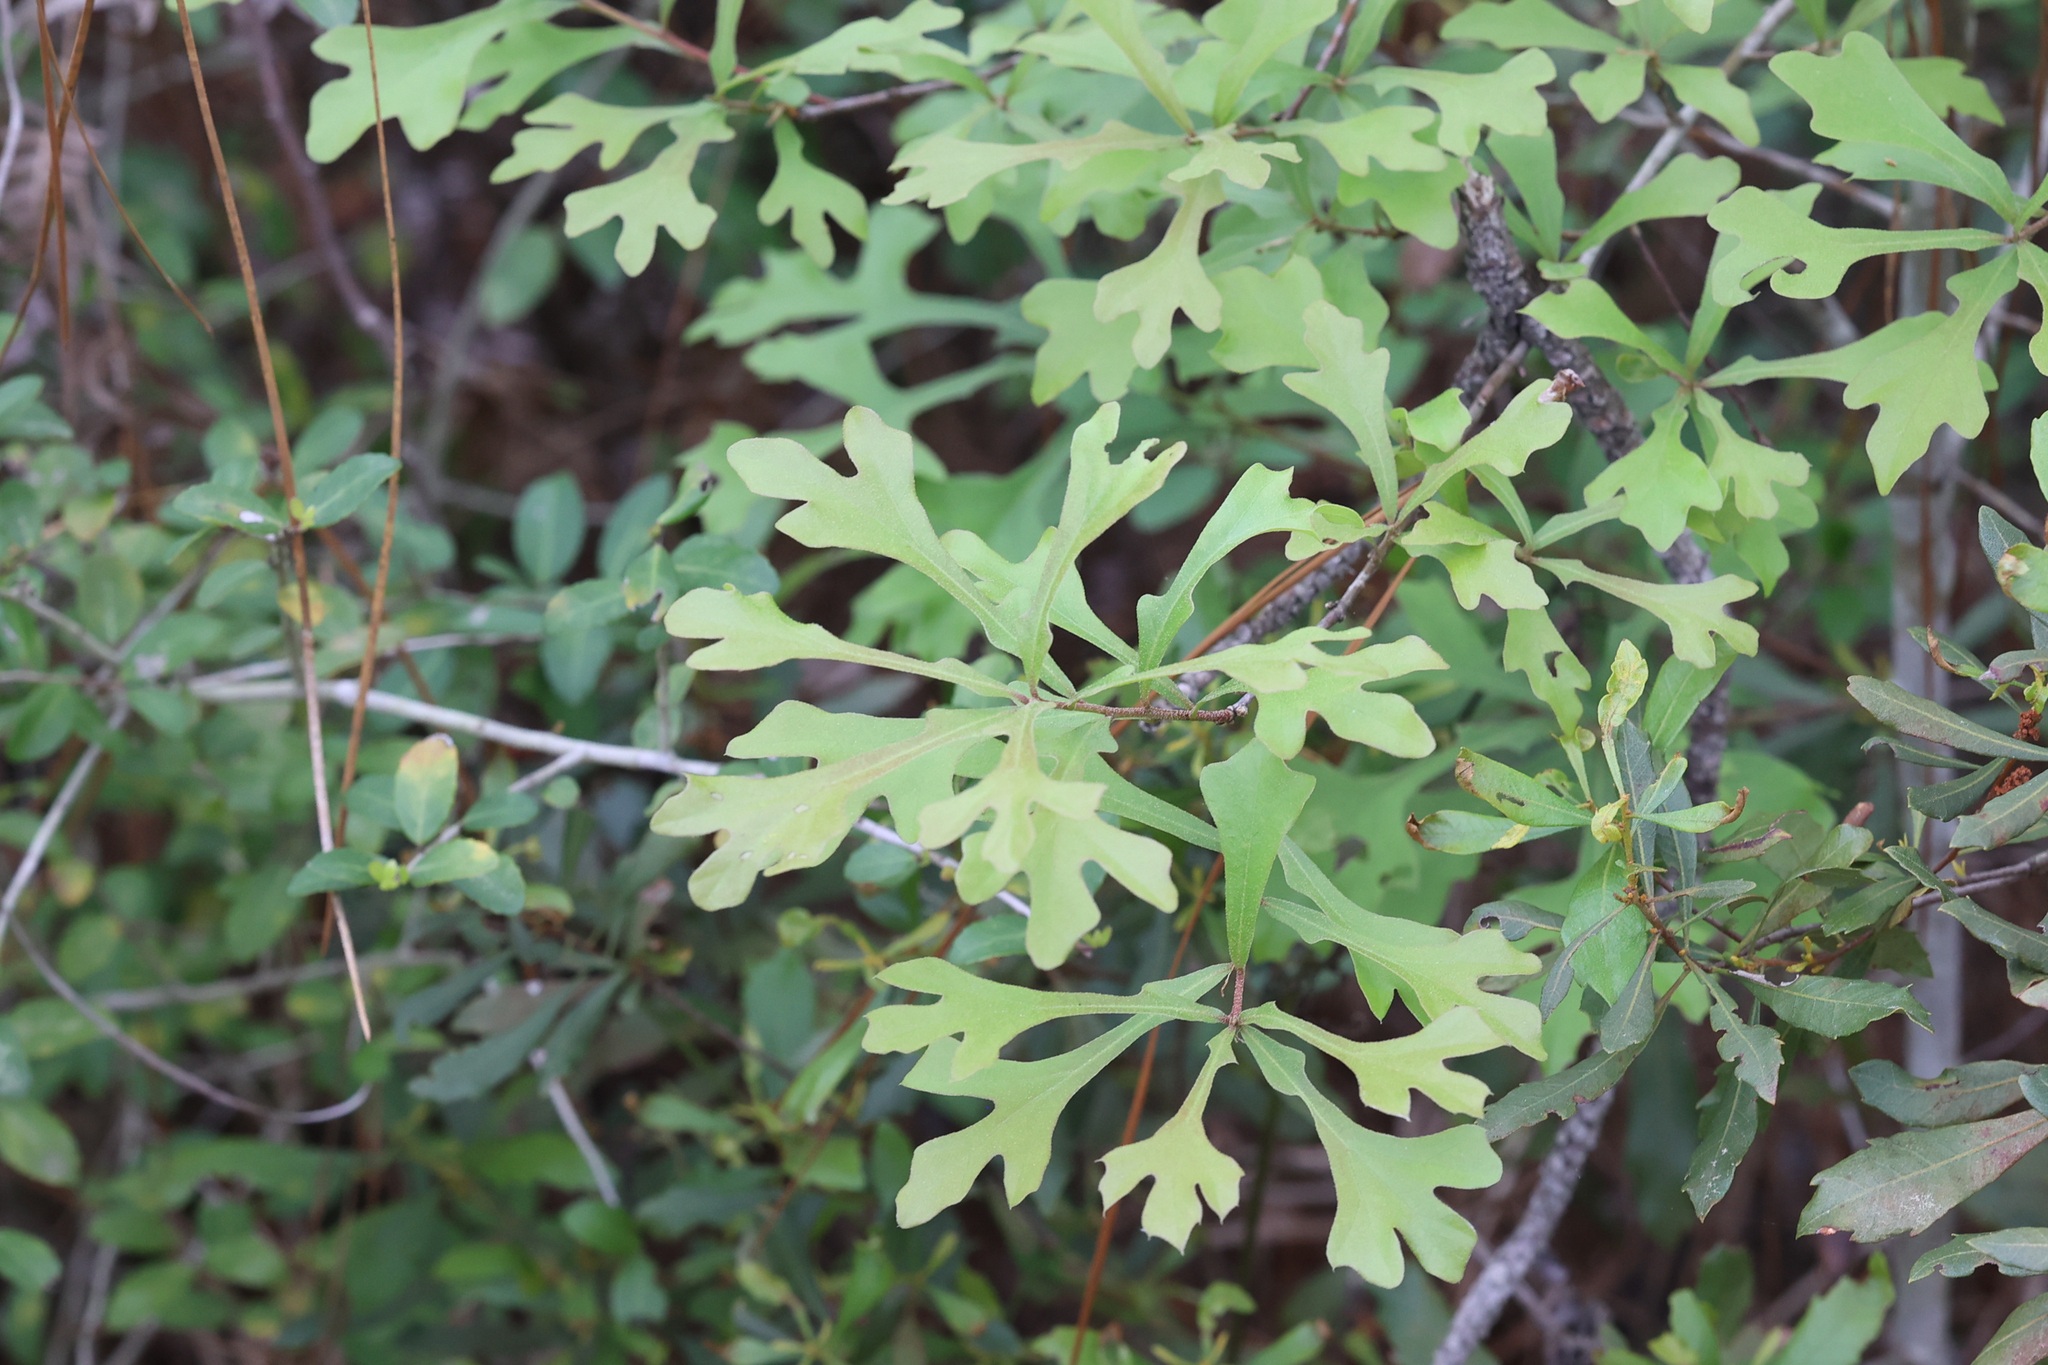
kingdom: Plantae
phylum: Tracheophyta
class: Magnoliopsida
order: Fagales
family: Fagaceae
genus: Quercus
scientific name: Quercus nigra
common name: Water oak
